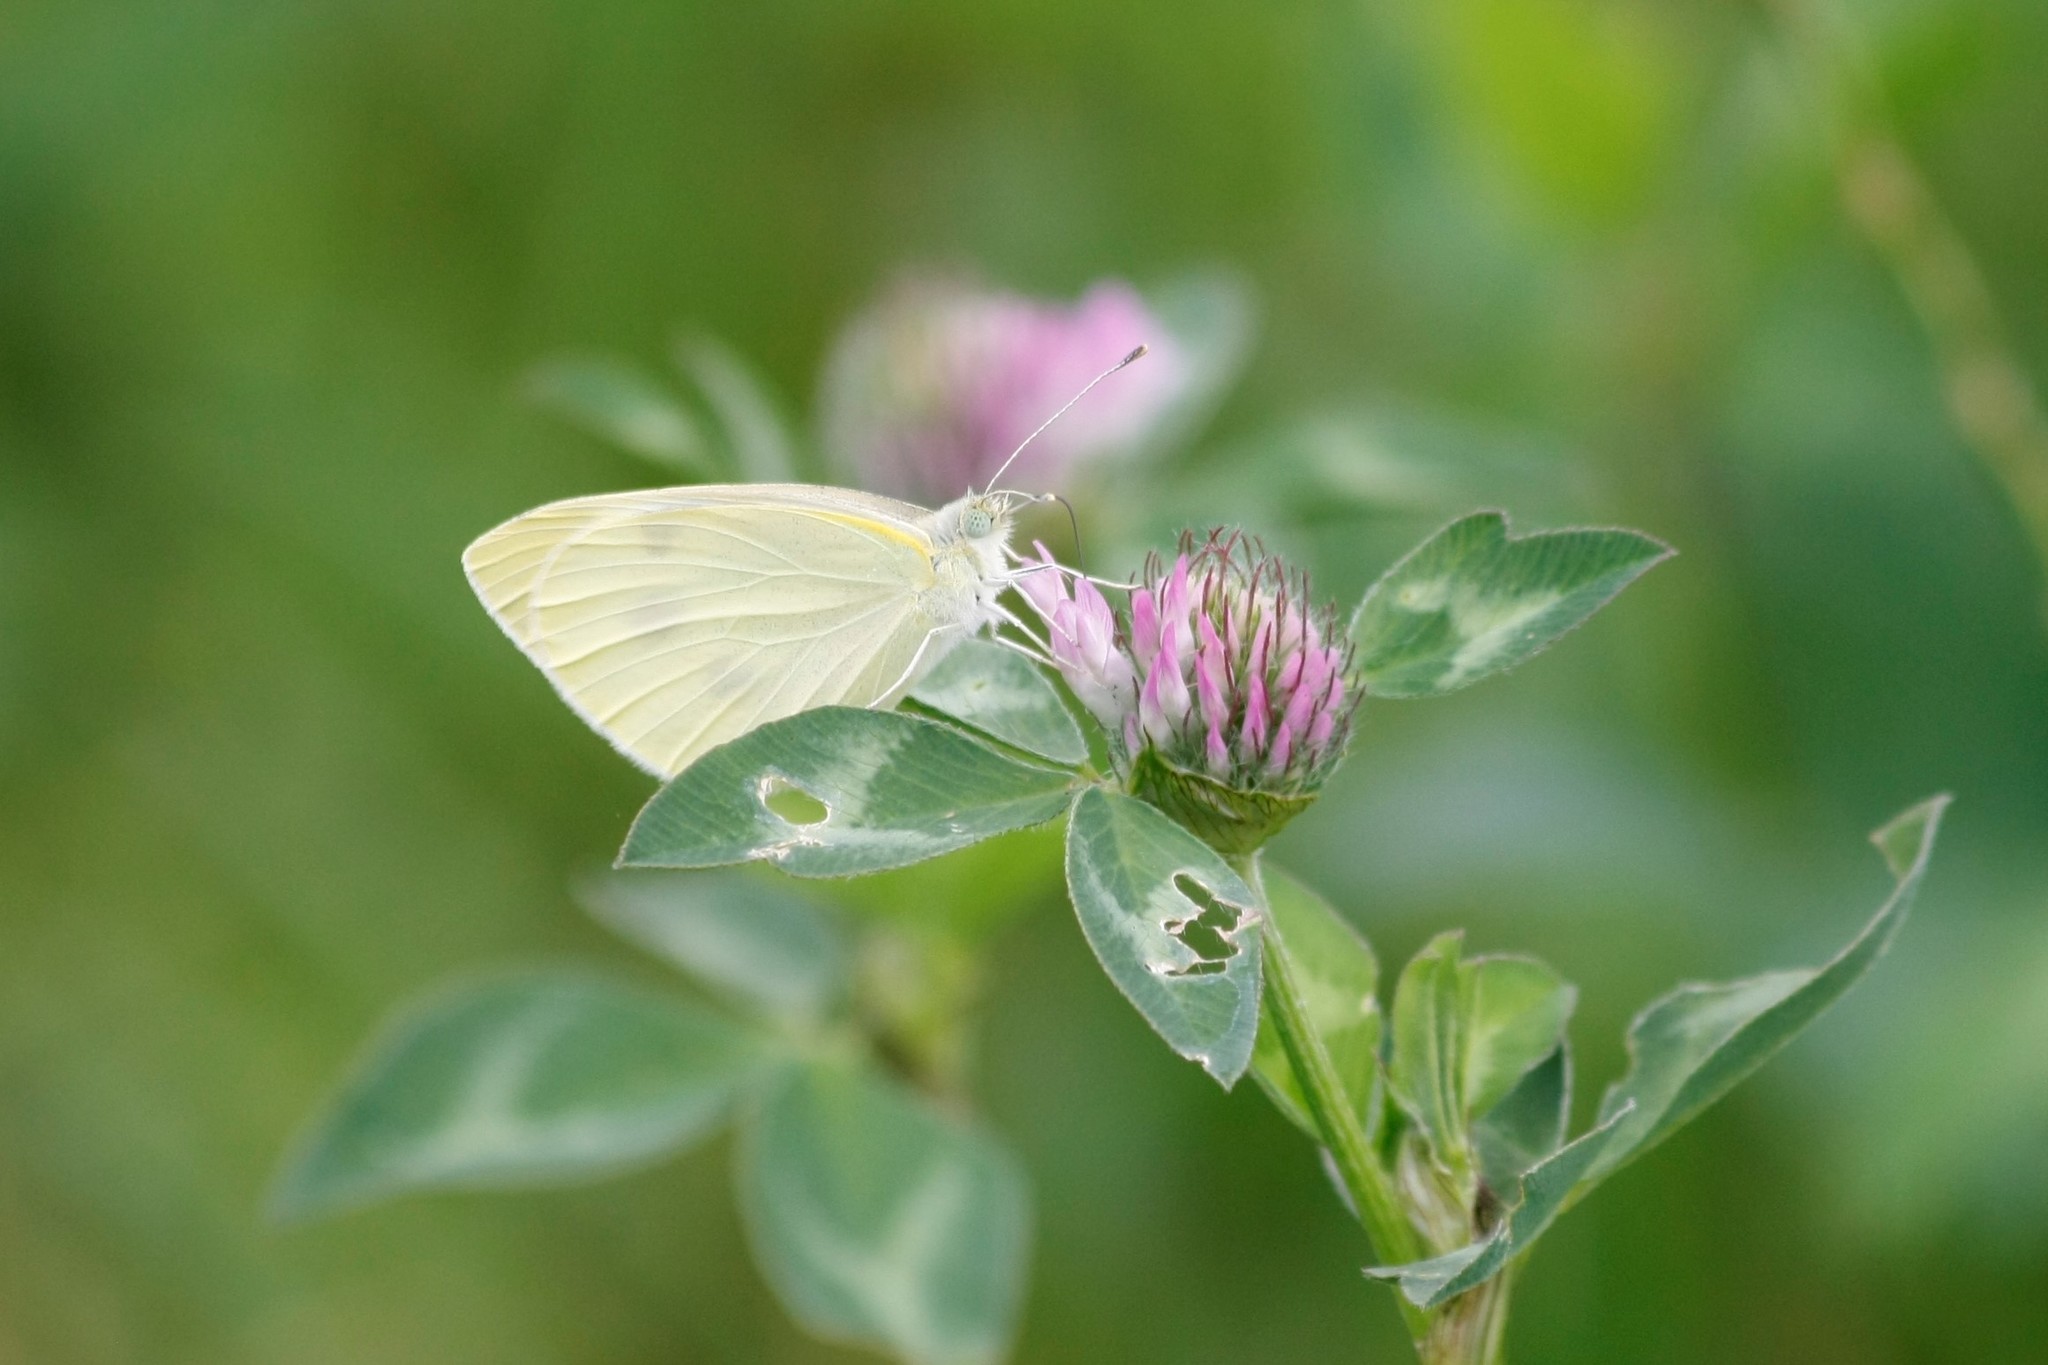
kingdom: Animalia
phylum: Arthropoda
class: Insecta
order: Lepidoptera
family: Pieridae
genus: Pieris
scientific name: Pieris rapae
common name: Small white
